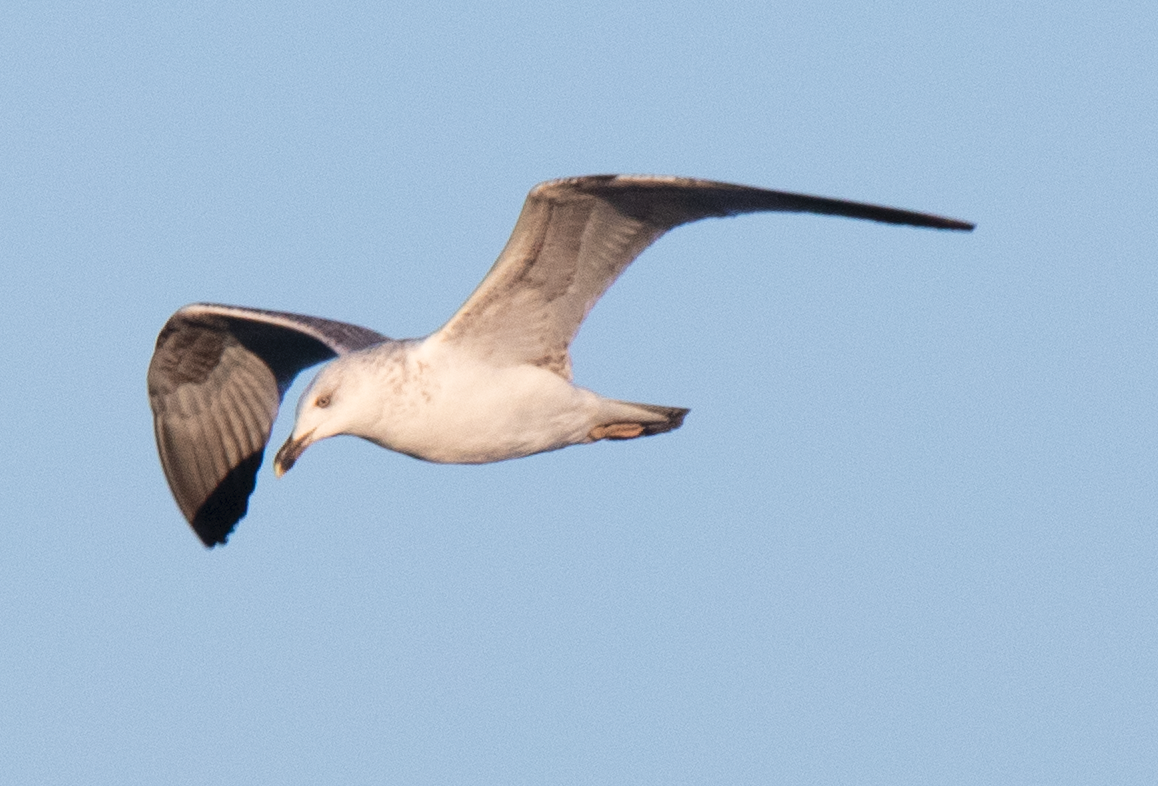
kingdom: Animalia
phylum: Chordata
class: Aves
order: Charadriiformes
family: Laridae
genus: Larus
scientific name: Larus michahellis
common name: Yellow-legged gull
